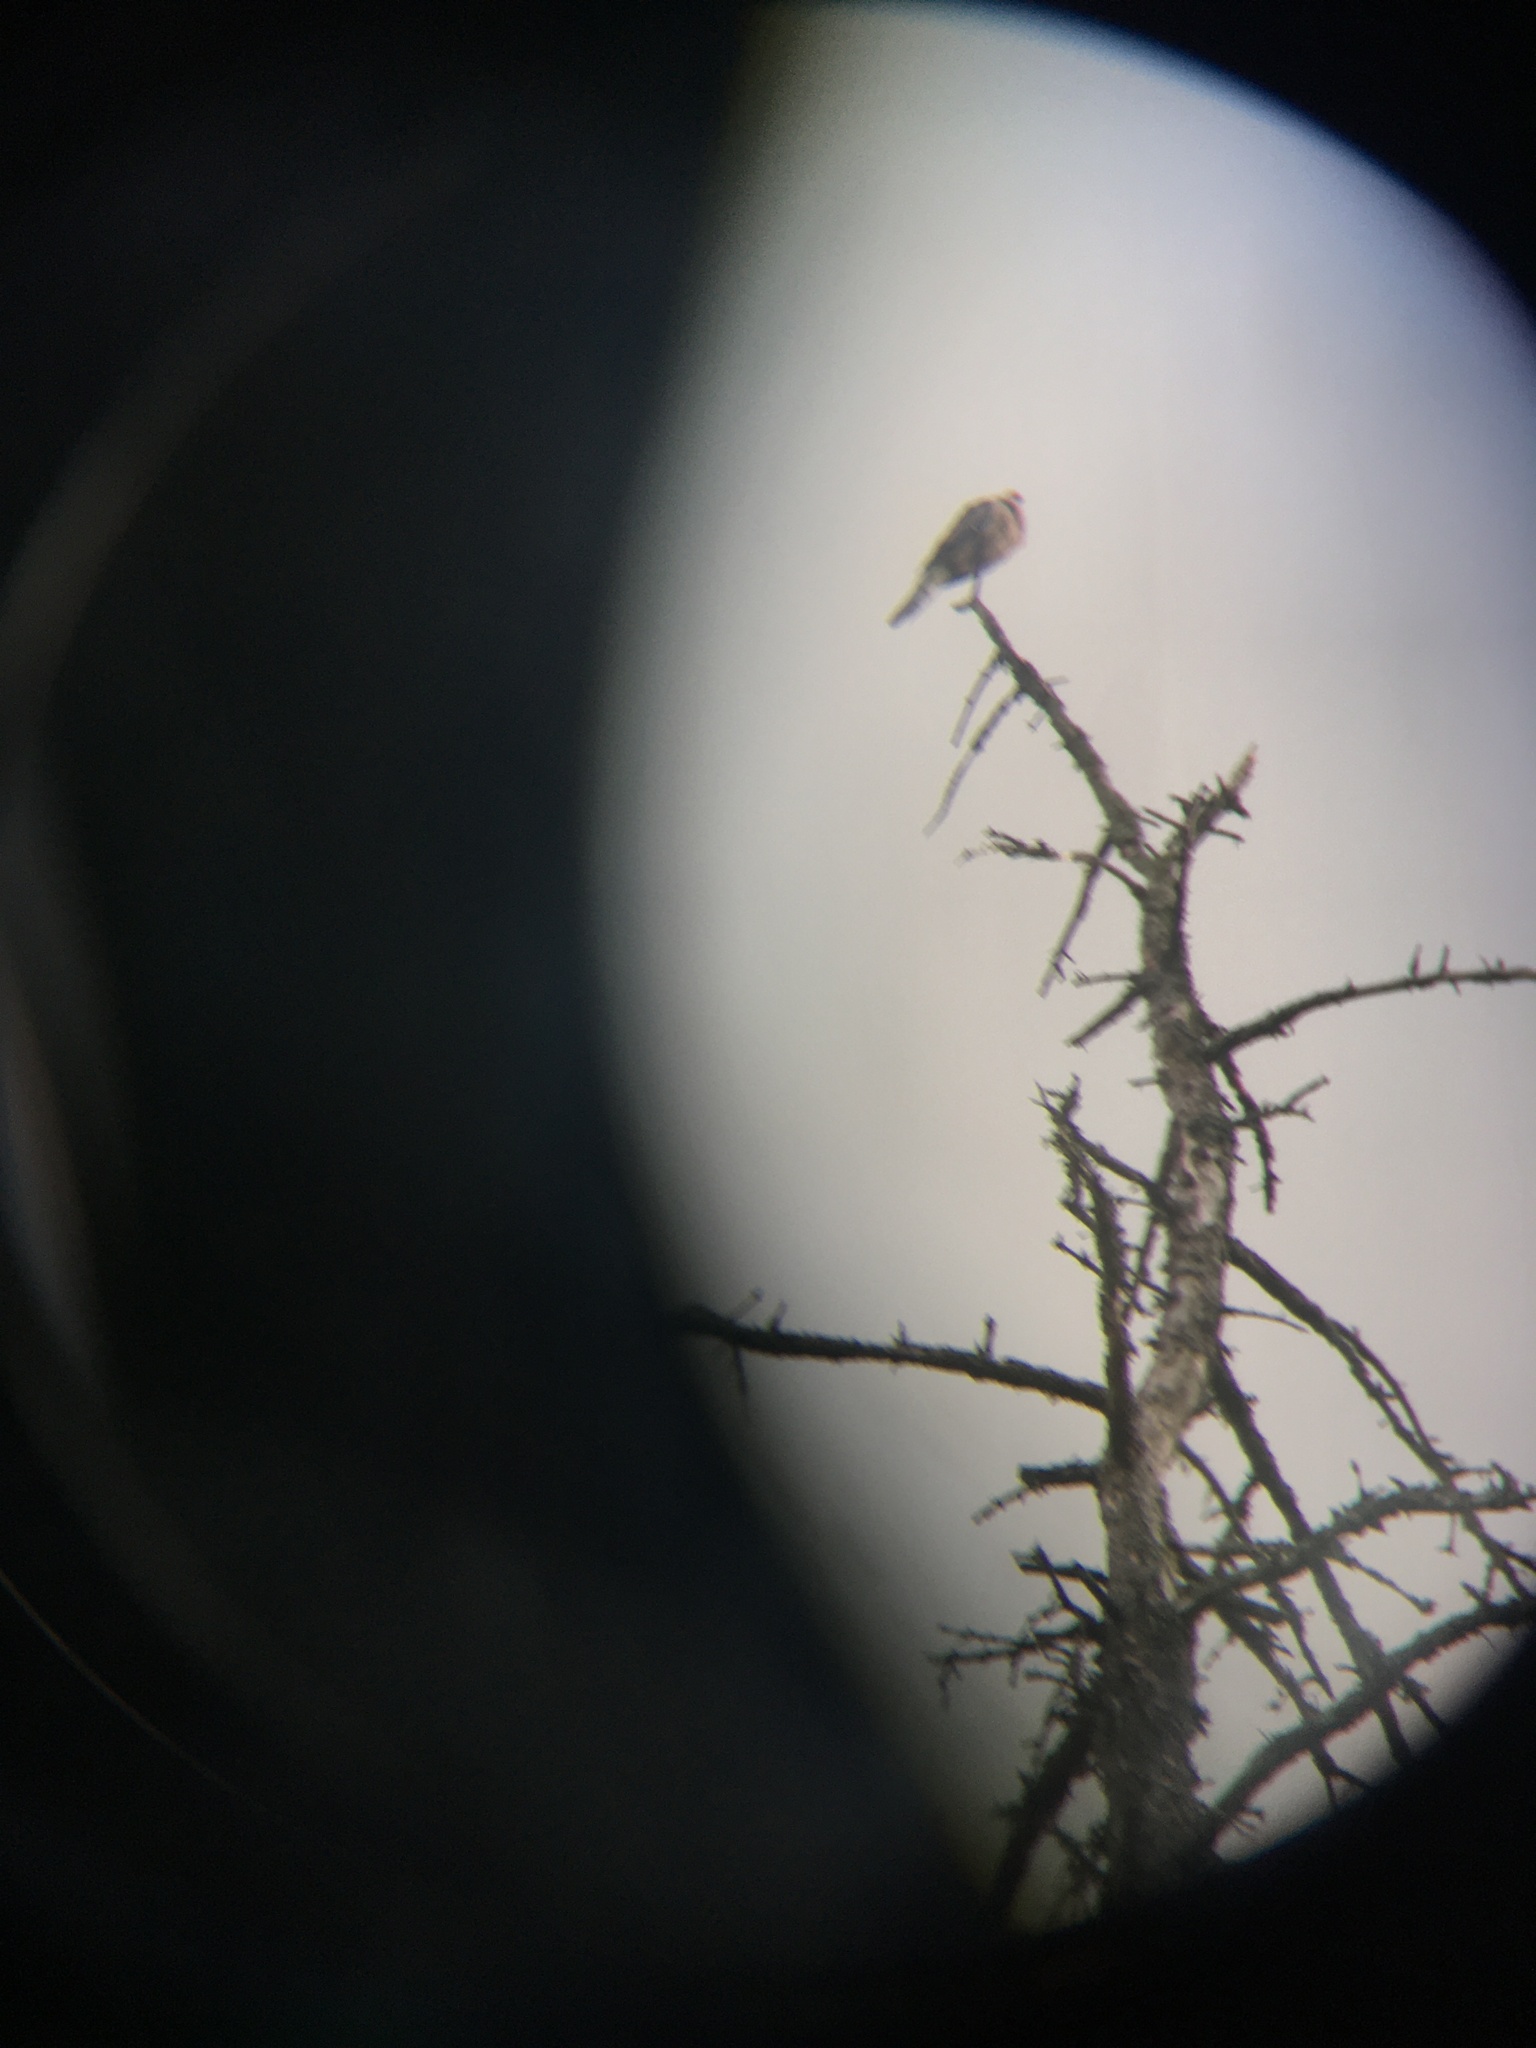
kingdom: Animalia
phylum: Chordata
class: Aves
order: Columbiformes
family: Columbidae
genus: Zenaida
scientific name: Zenaida macroura
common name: Mourning dove
